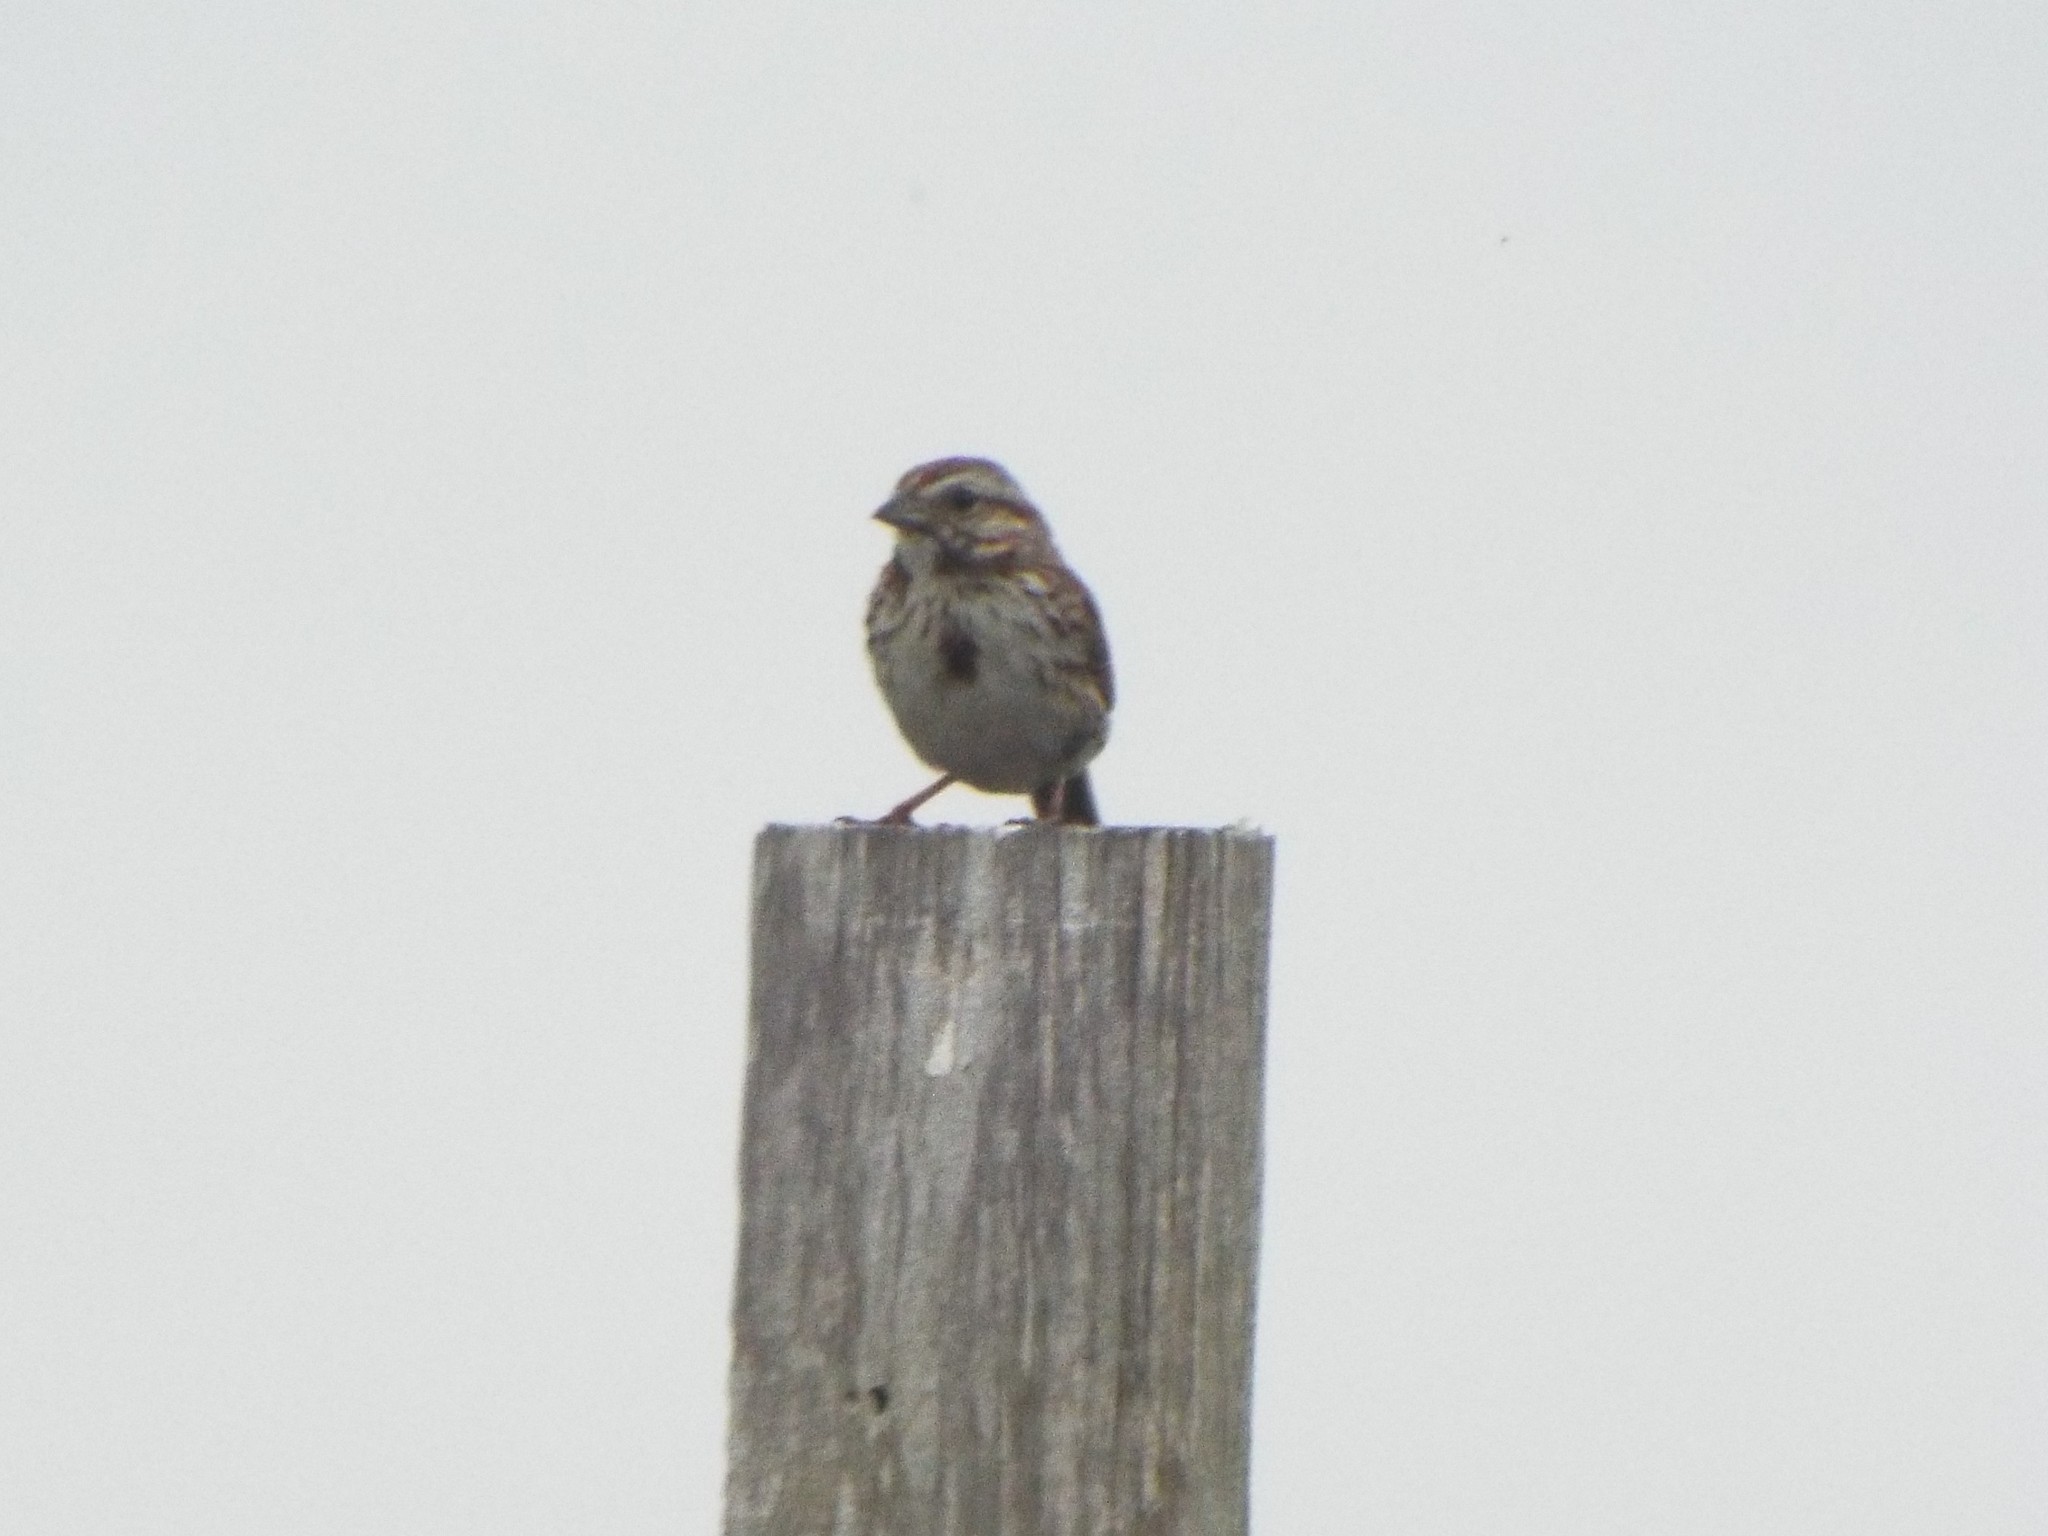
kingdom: Animalia
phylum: Chordata
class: Aves
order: Passeriformes
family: Passerellidae
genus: Melospiza
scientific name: Melospiza melodia
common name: Song sparrow
